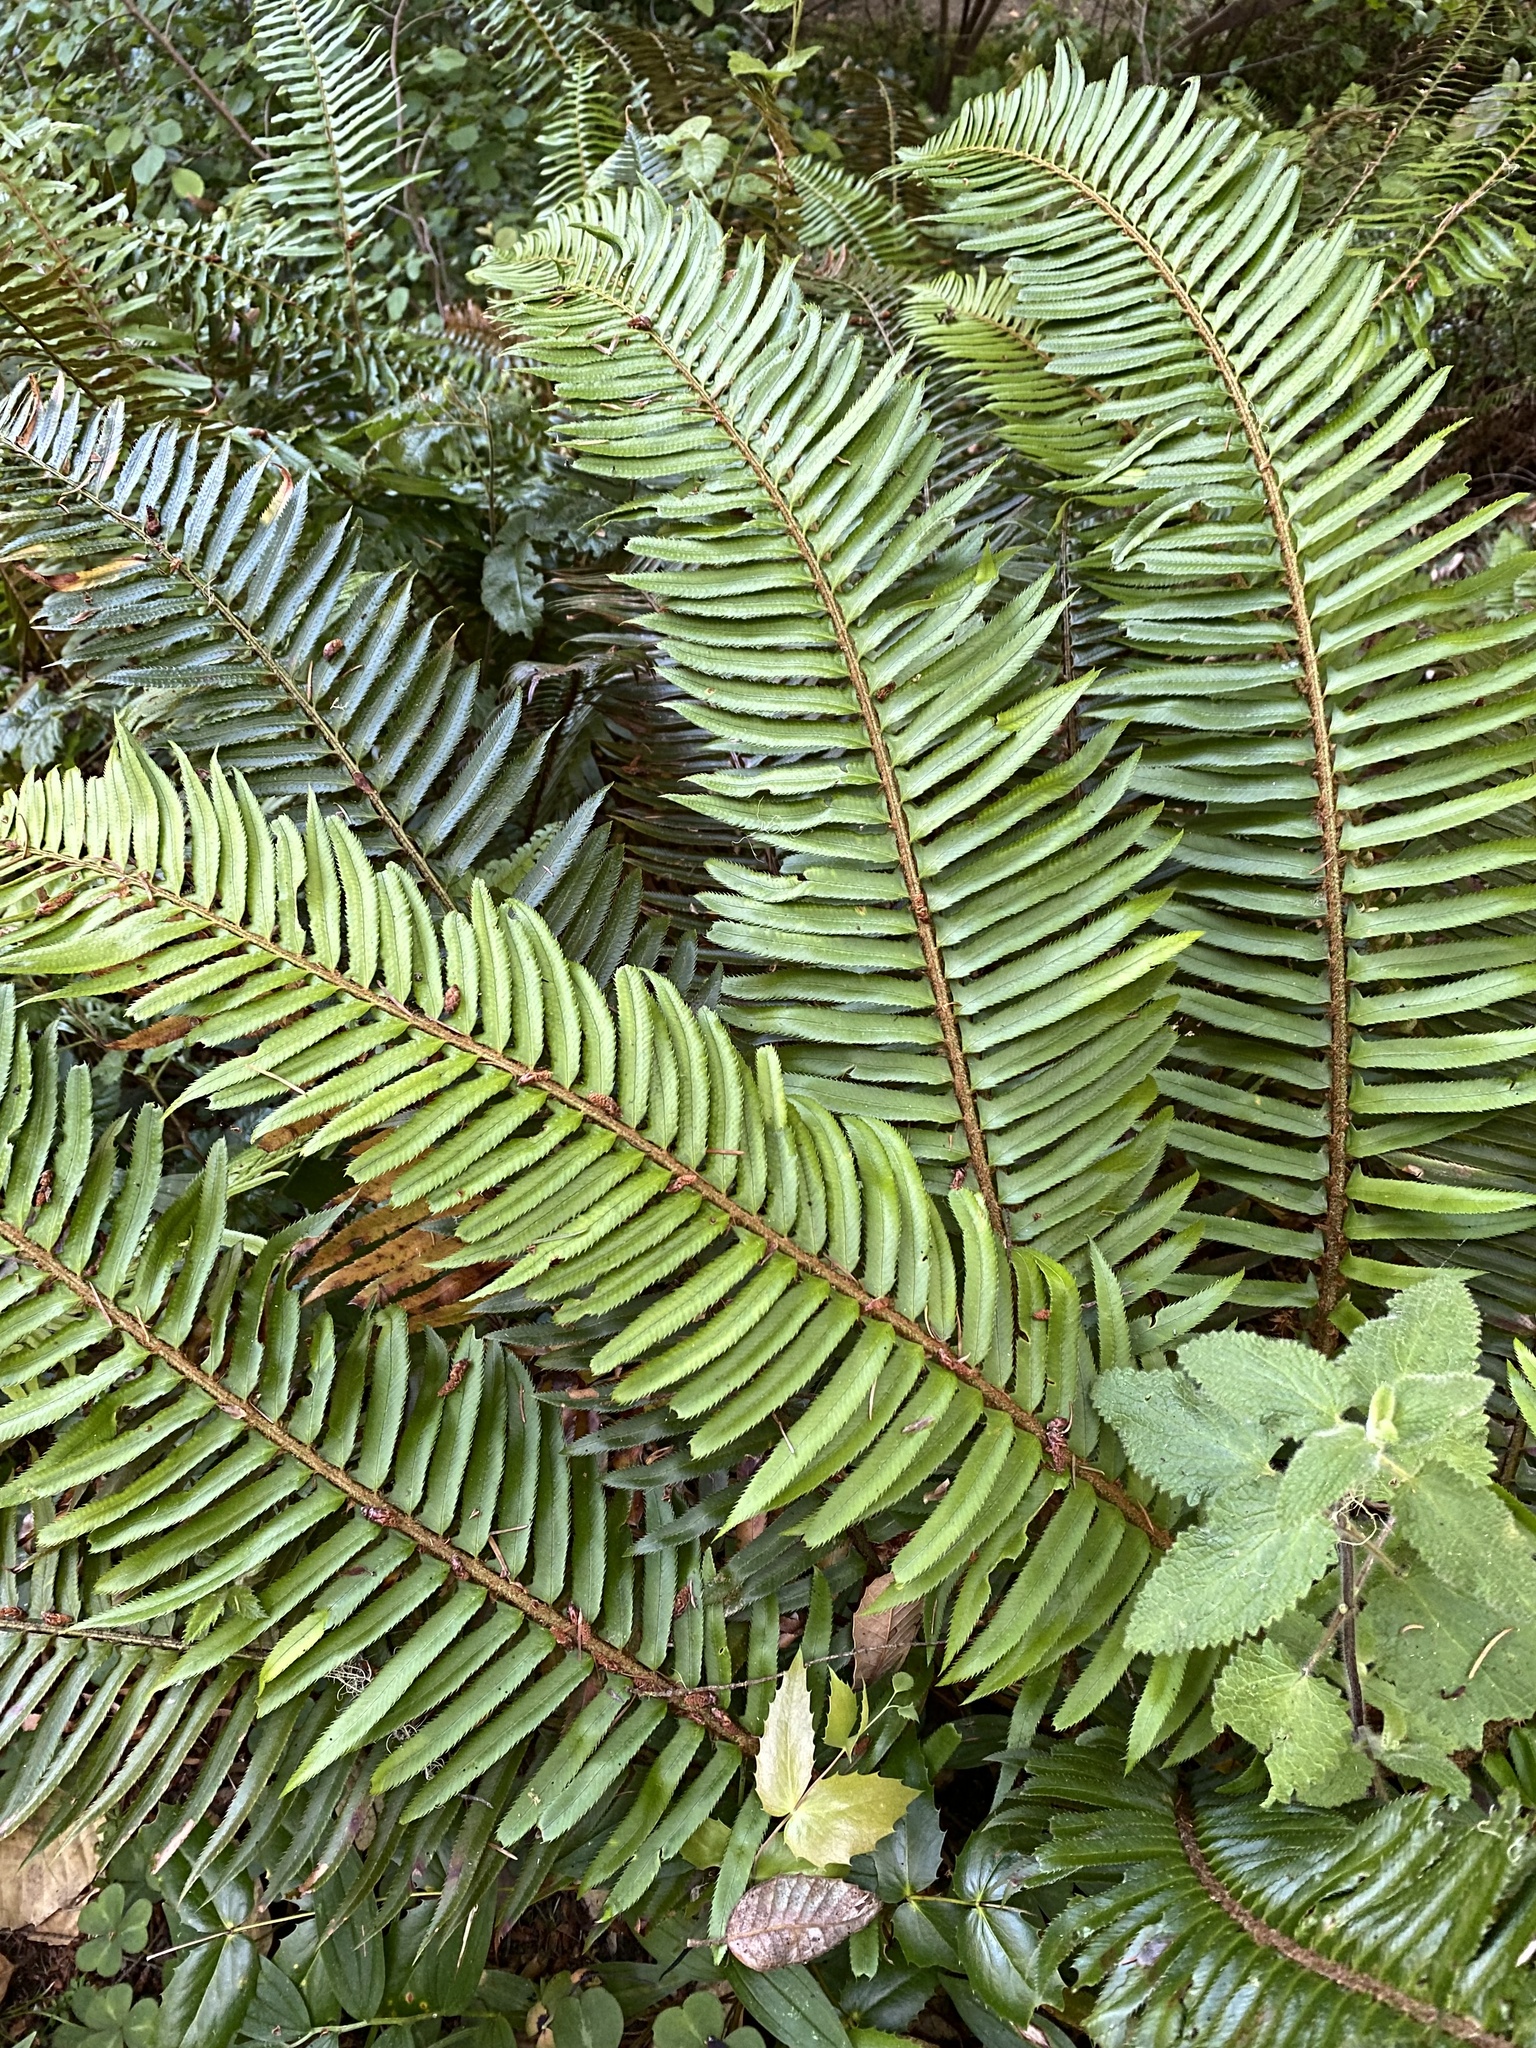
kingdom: Plantae
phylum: Tracheophyta
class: Polypodiopsida
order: Polypodiales
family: Dryopteridaceae
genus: Polystichum
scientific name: Polystichum munitum
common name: Western sword-fern
